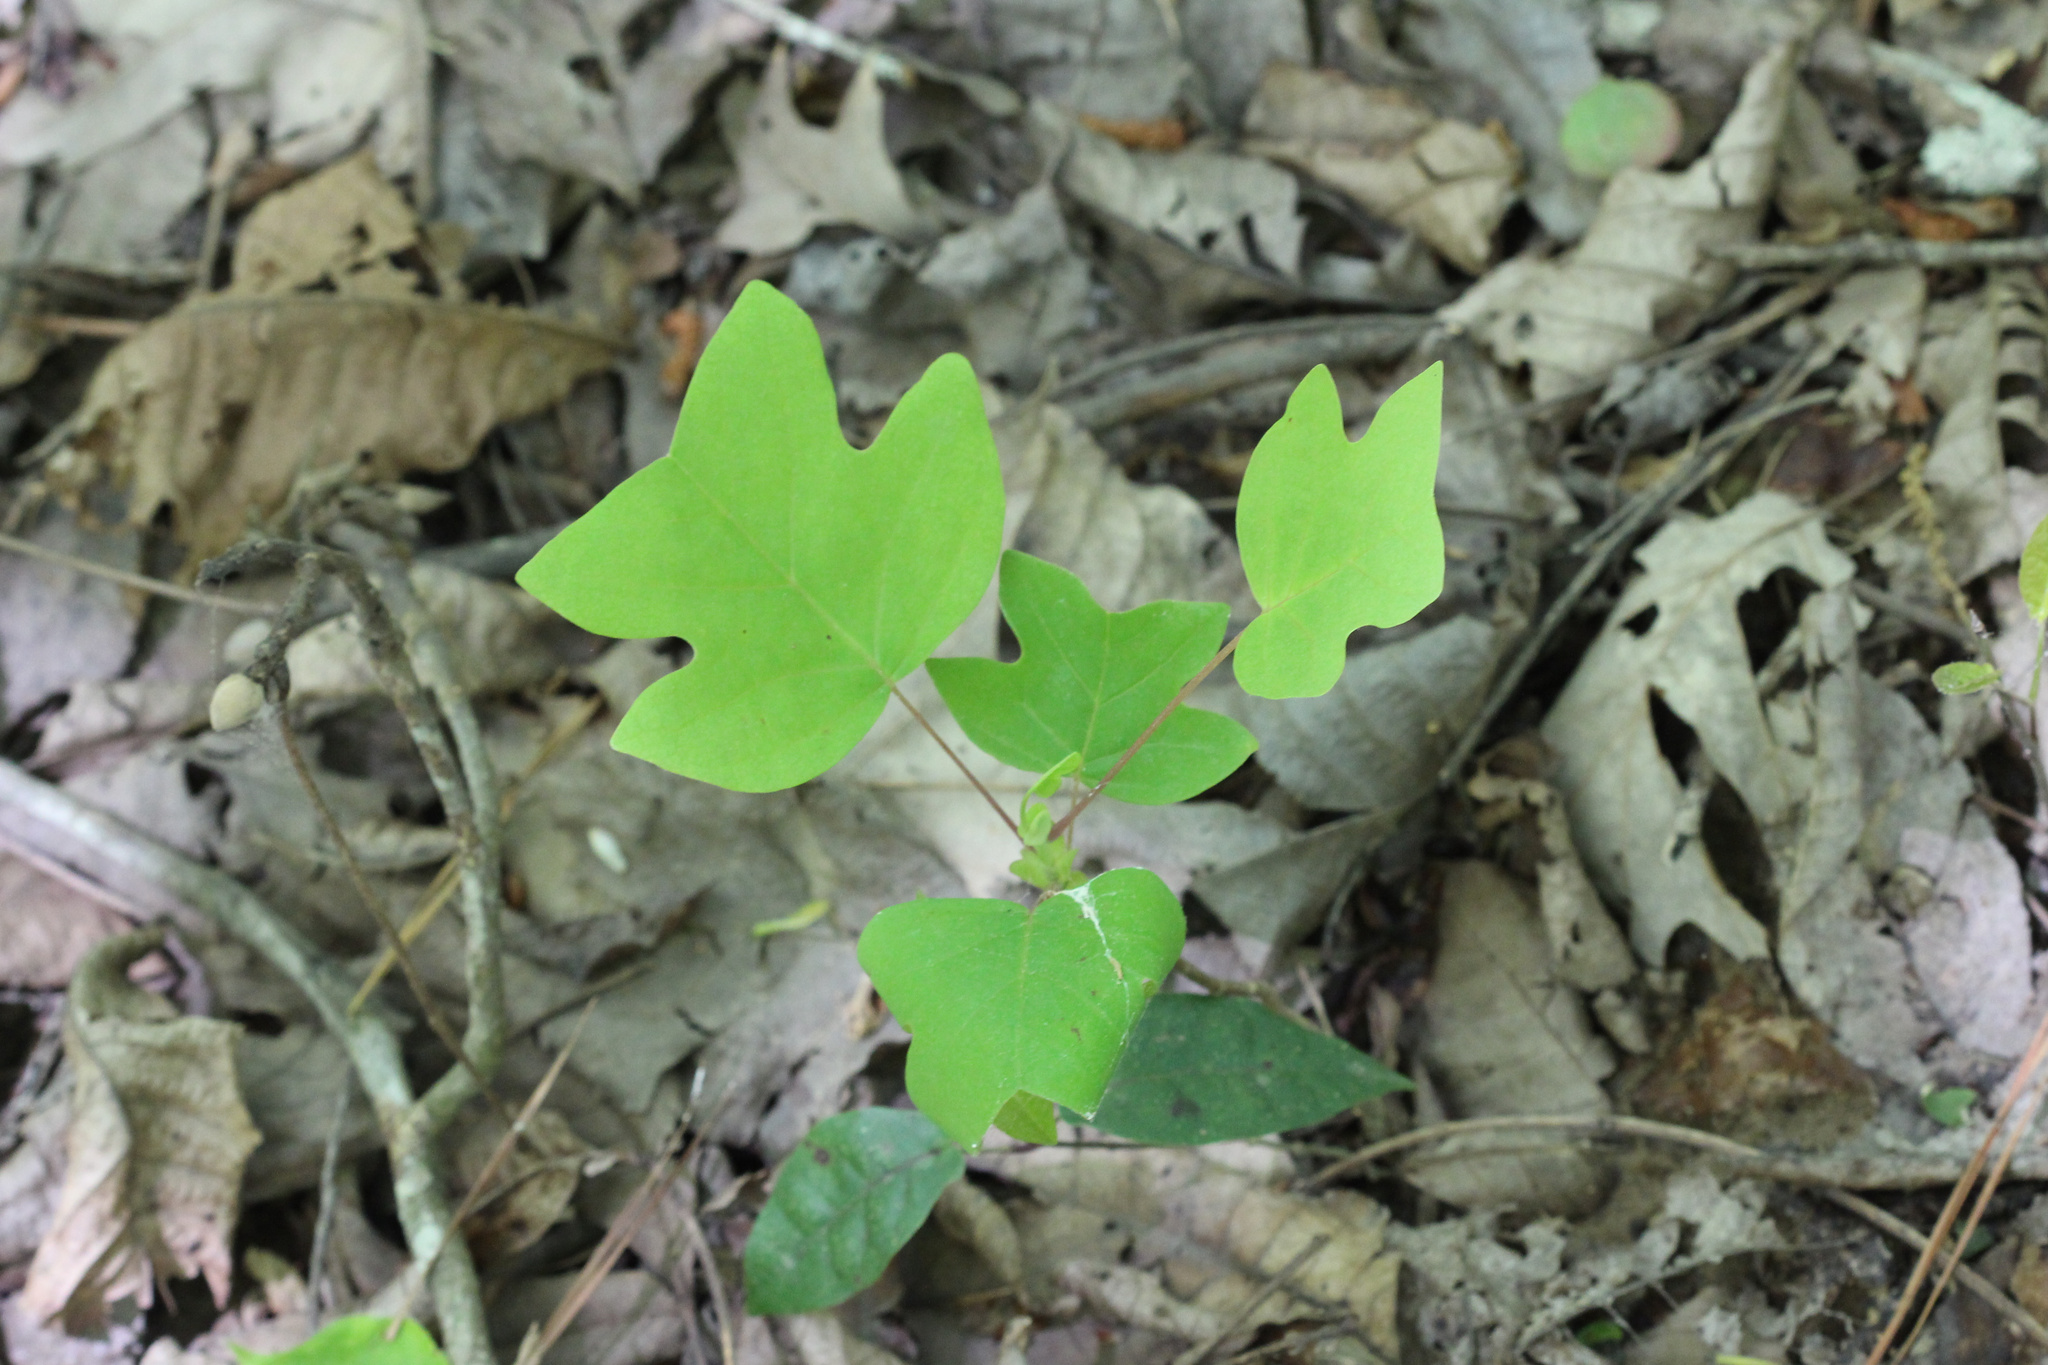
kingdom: Plantae
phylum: Tracheophyta
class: Magnoliopsida
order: Magnoliales
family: Magnoliaceae
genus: Liriodendron
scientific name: Liriodendron tulipifera
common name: Tulip tree
